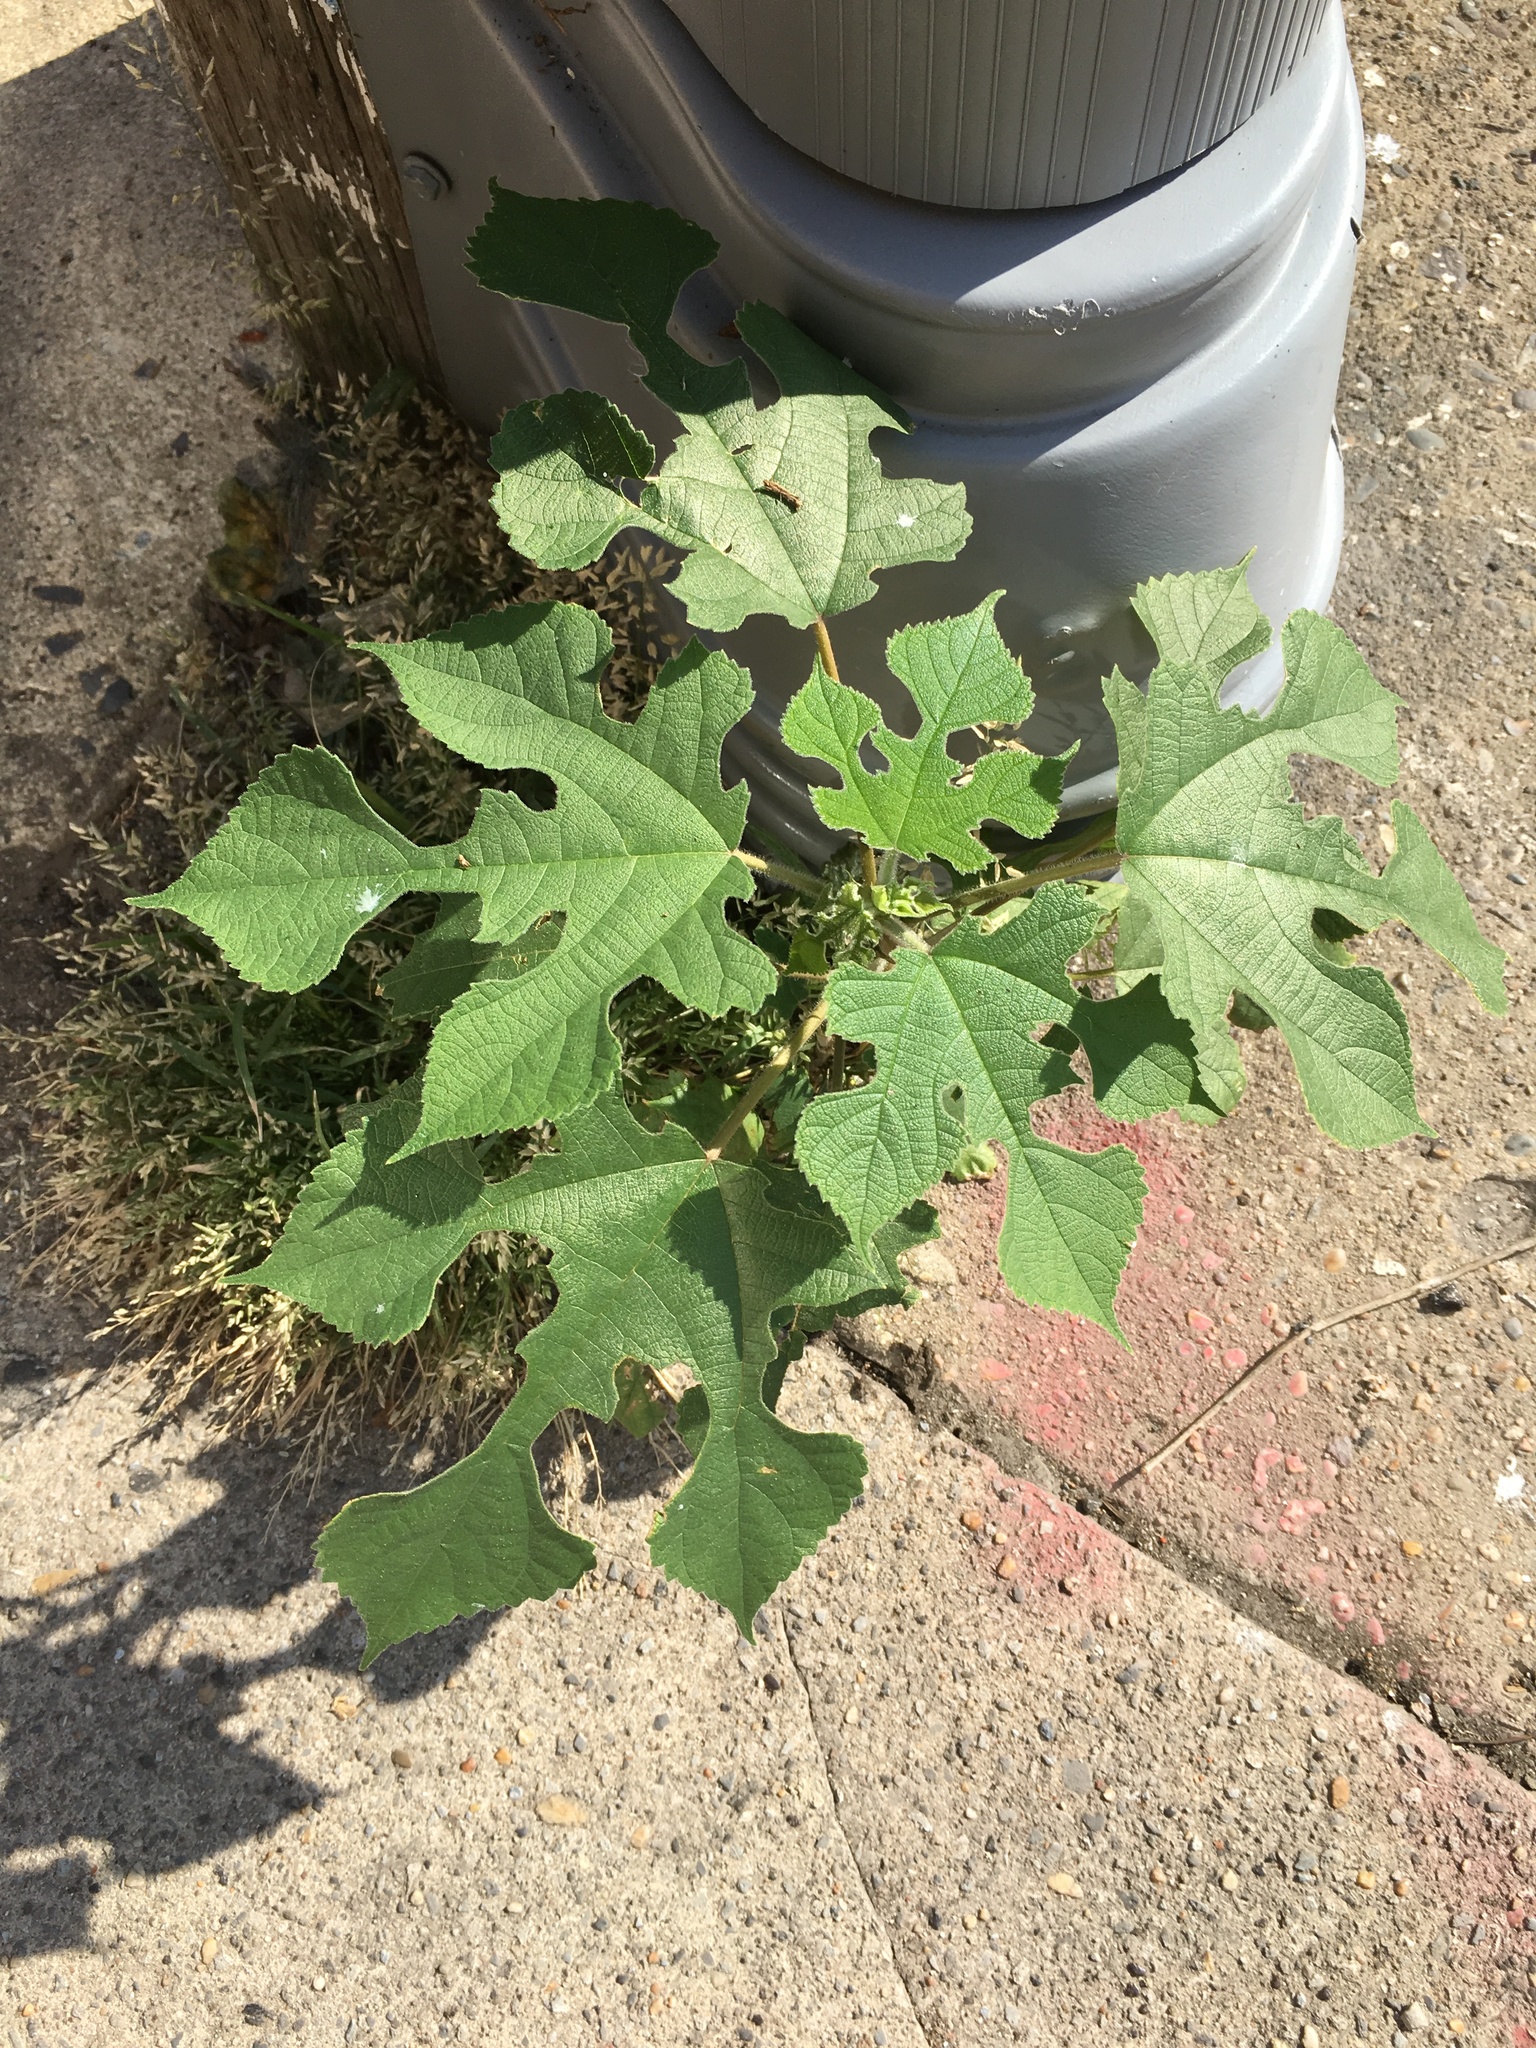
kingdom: Plantae
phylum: Tracheophyta
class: Magnoliopsida
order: Rosales
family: Moraceae
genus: Broussonetia
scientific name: Broussonetia papyrifera
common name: Paper mulberry
